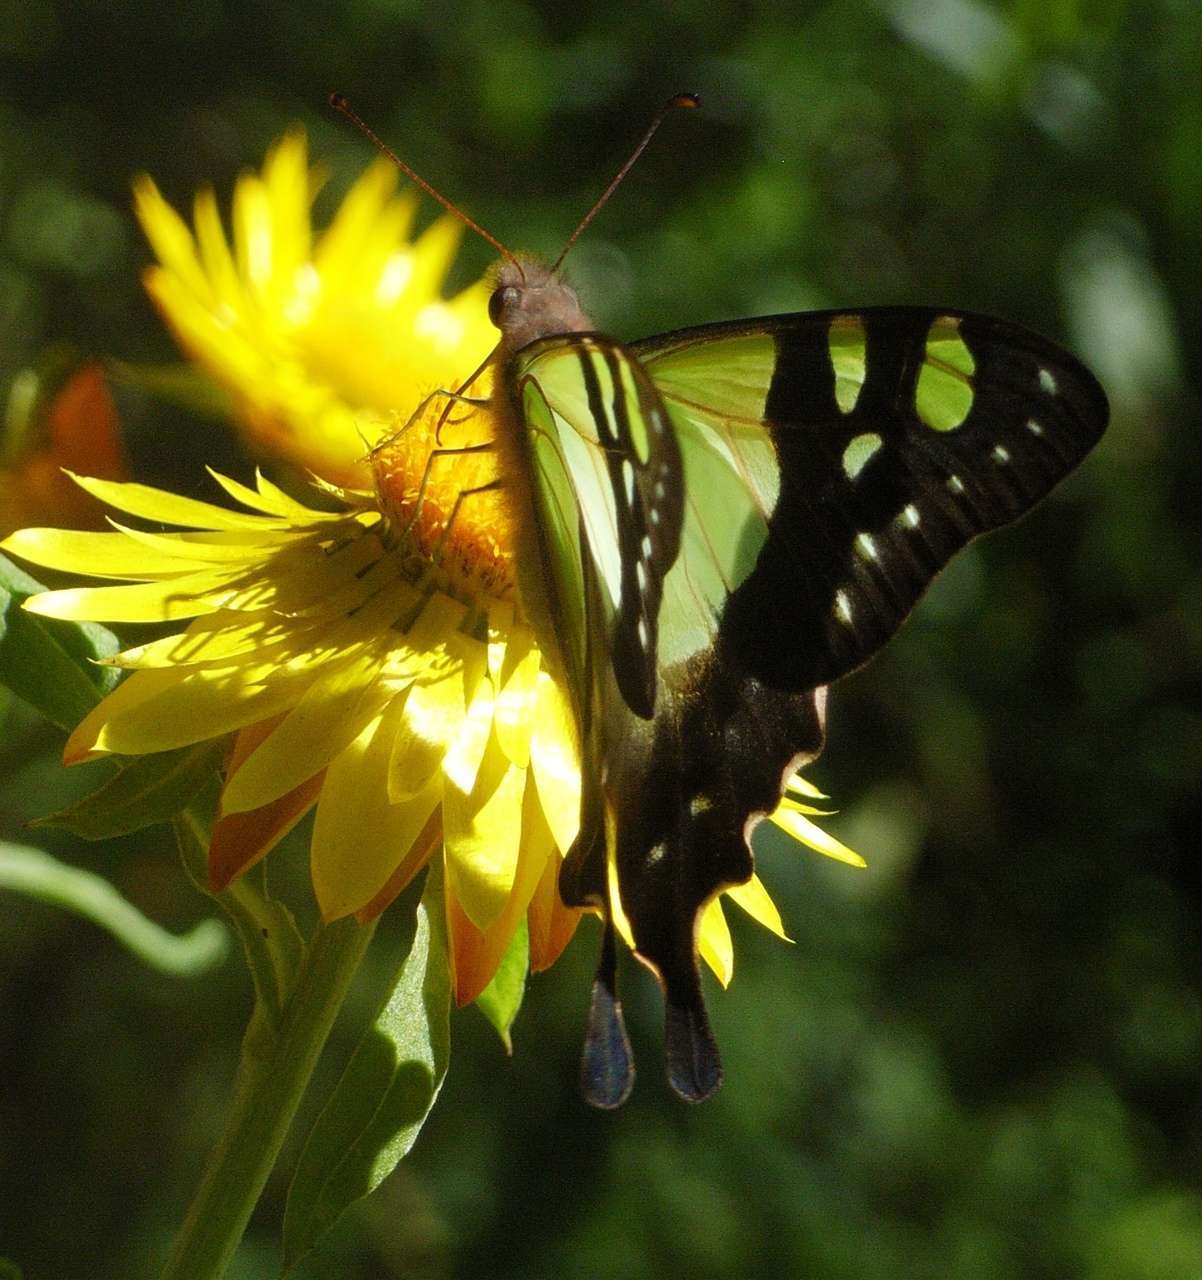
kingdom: Animalia
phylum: Arthropoda
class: Insecta
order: Lepidoptera
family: Papilionidae
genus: Graphium
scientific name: Graphium macleayanus
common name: Macleay's swallowtail
